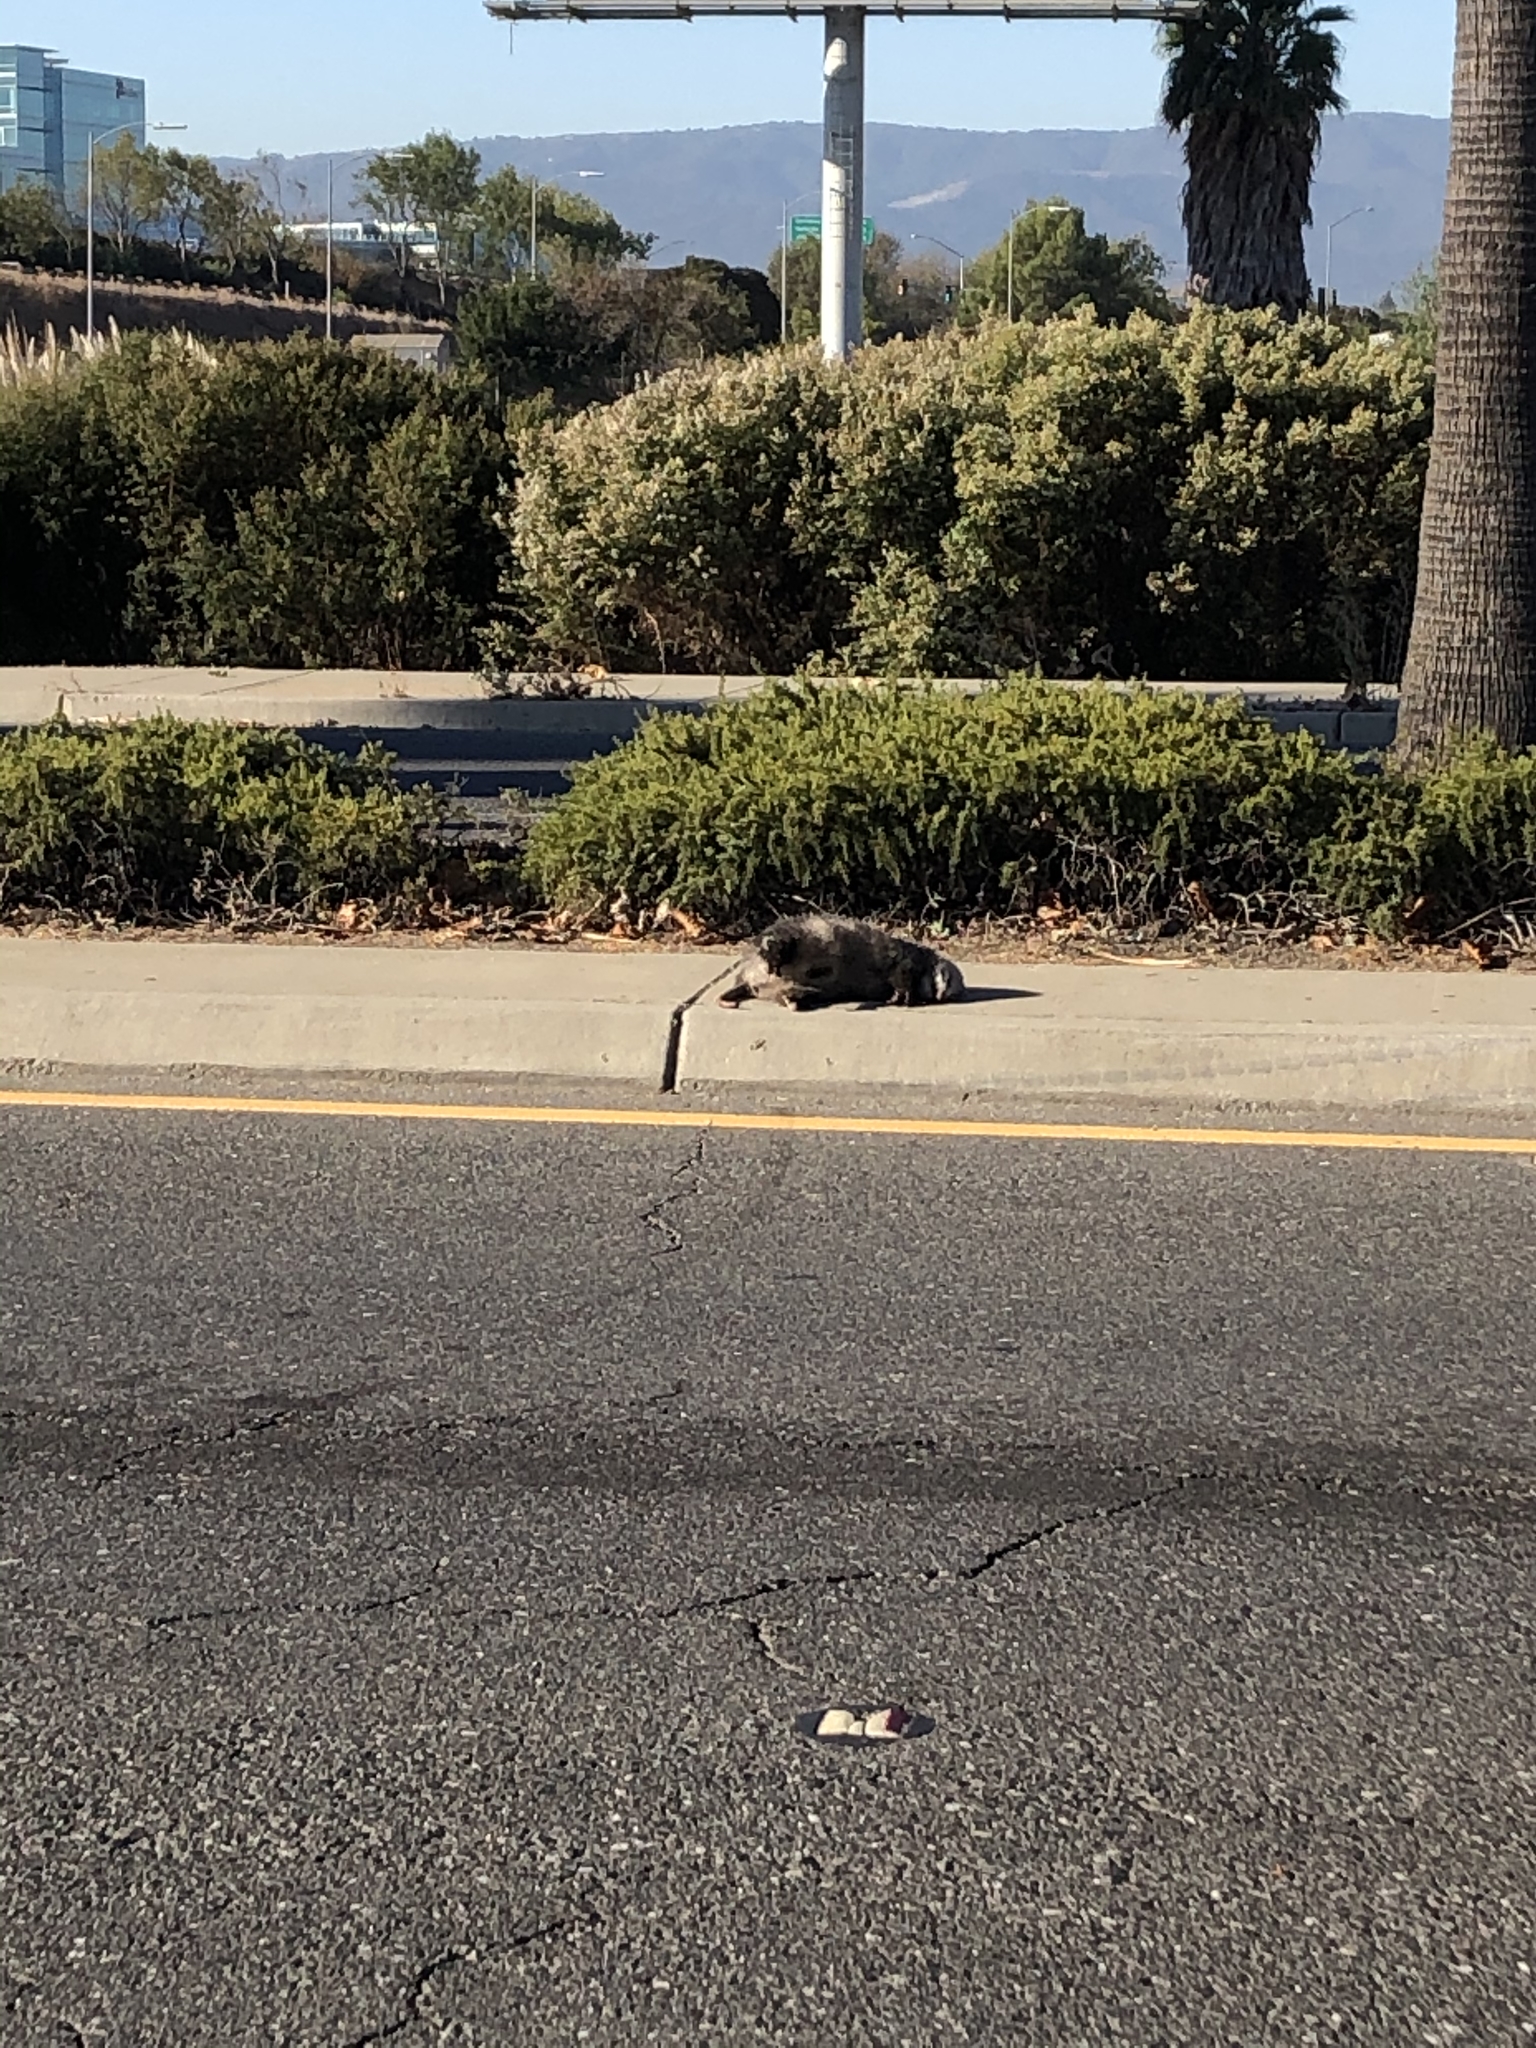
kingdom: Animalia
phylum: Chordata
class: Mammalia
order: Didelphimorphia
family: Didelphidae
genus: Didelphis
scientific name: Didelphis virginiana
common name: Virginia opossum
